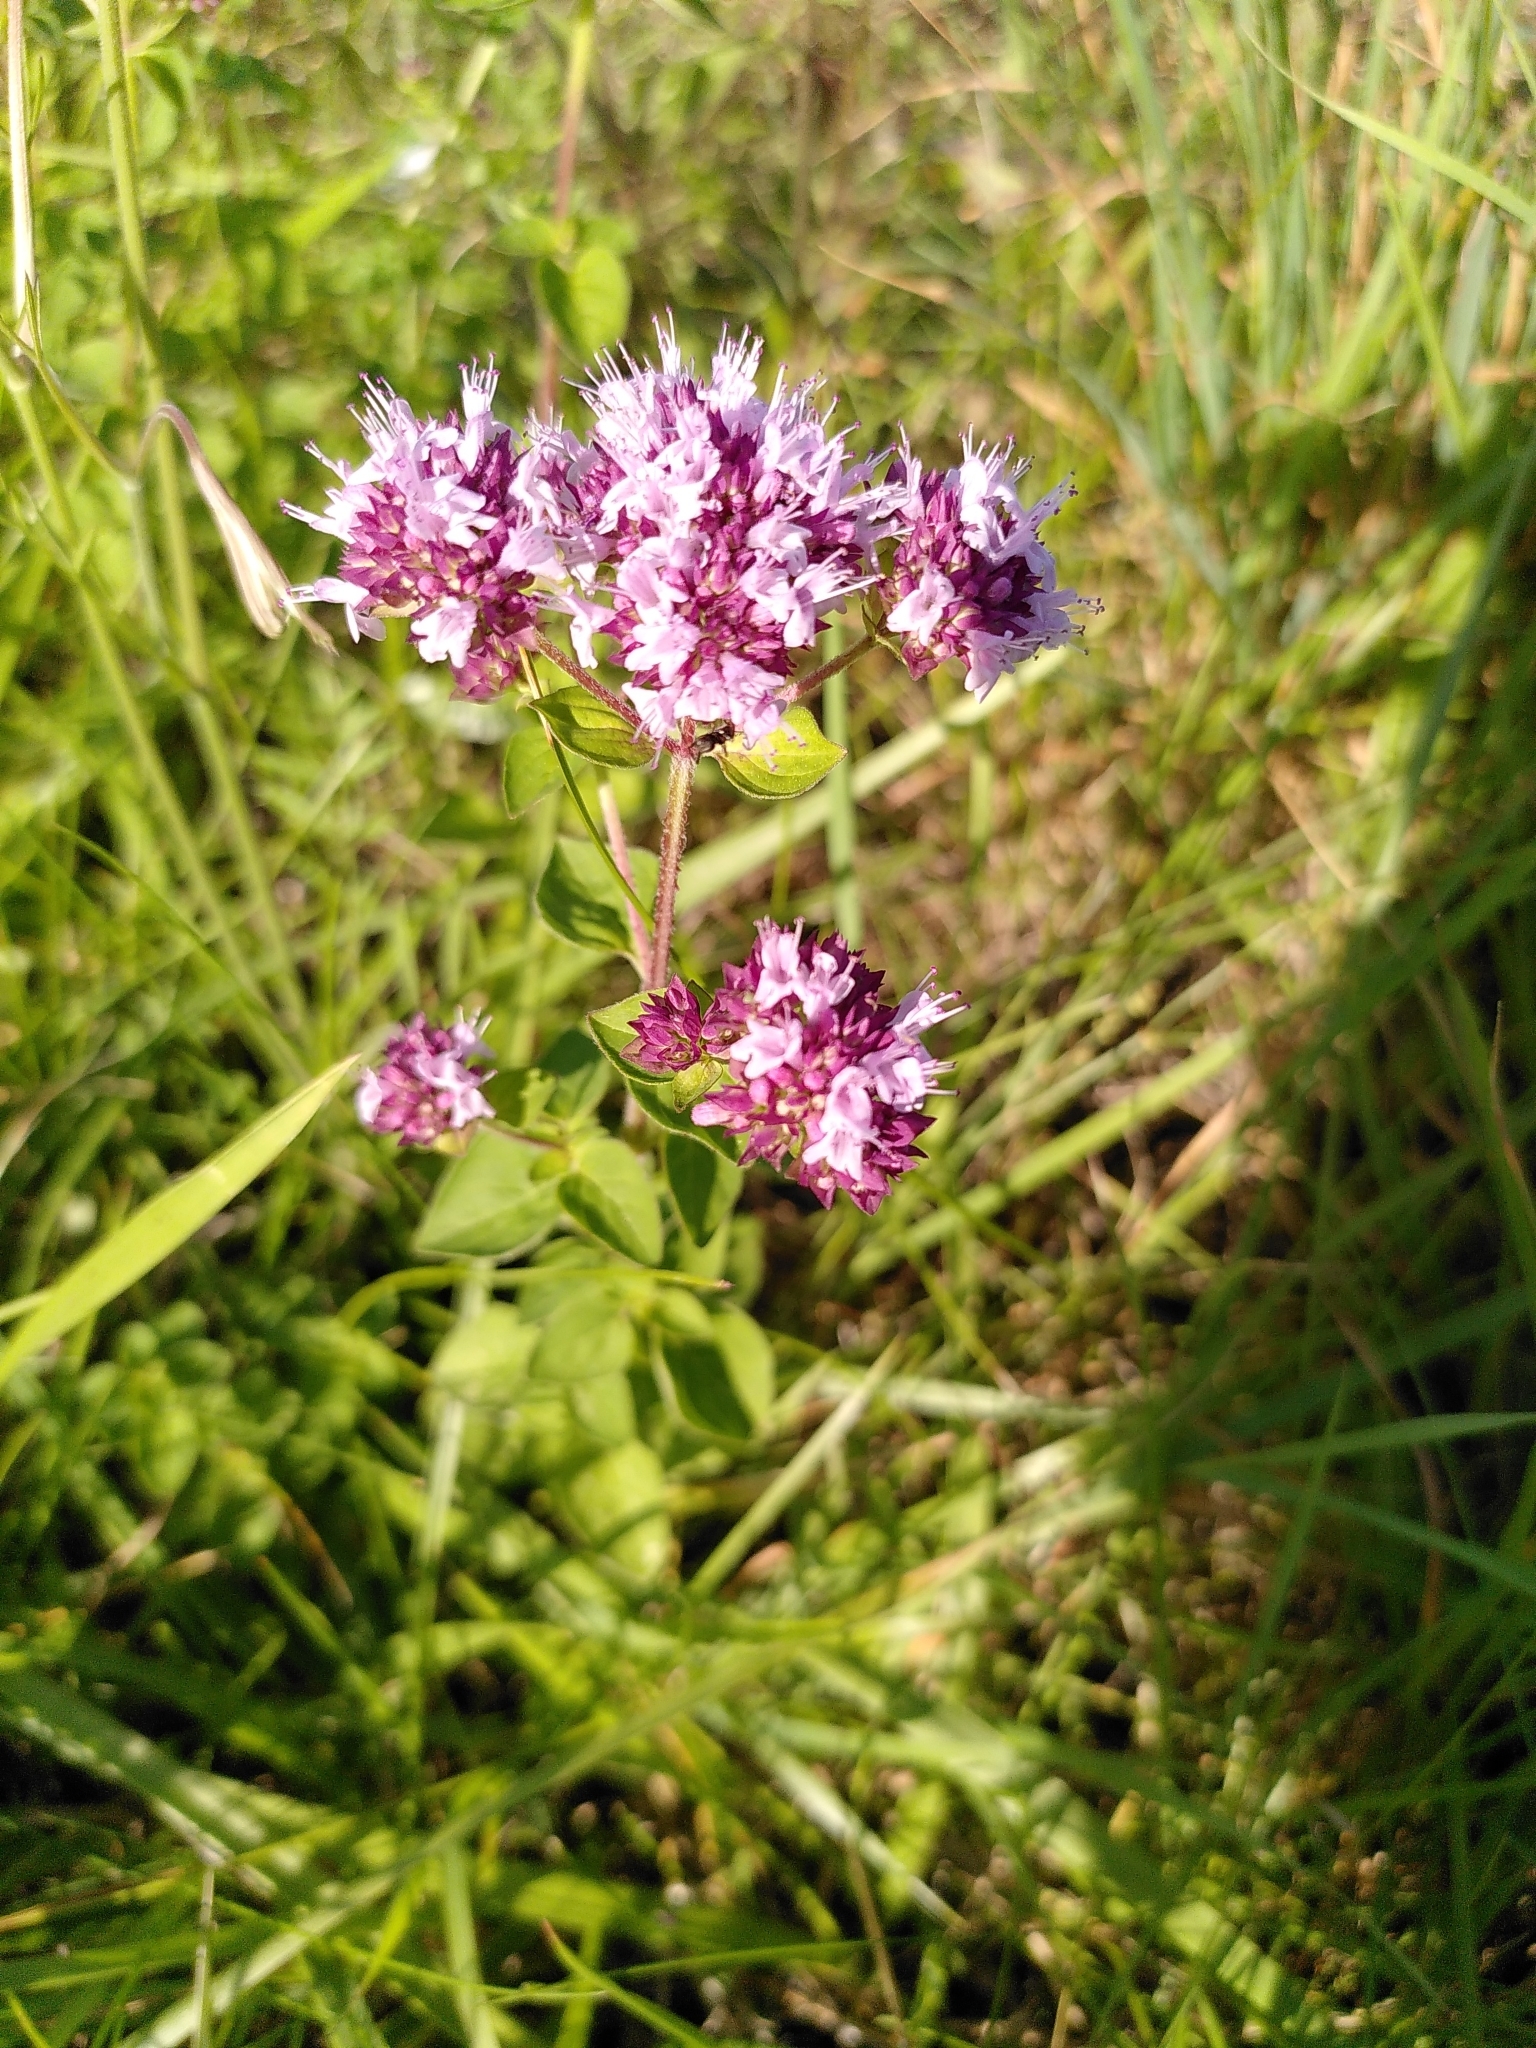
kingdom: Plantae
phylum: Tracheophyta
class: Magnoliopsida
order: Lamiales
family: Lamiaceae
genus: Origanum
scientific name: Origanum vulgare
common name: Wild marjoram
